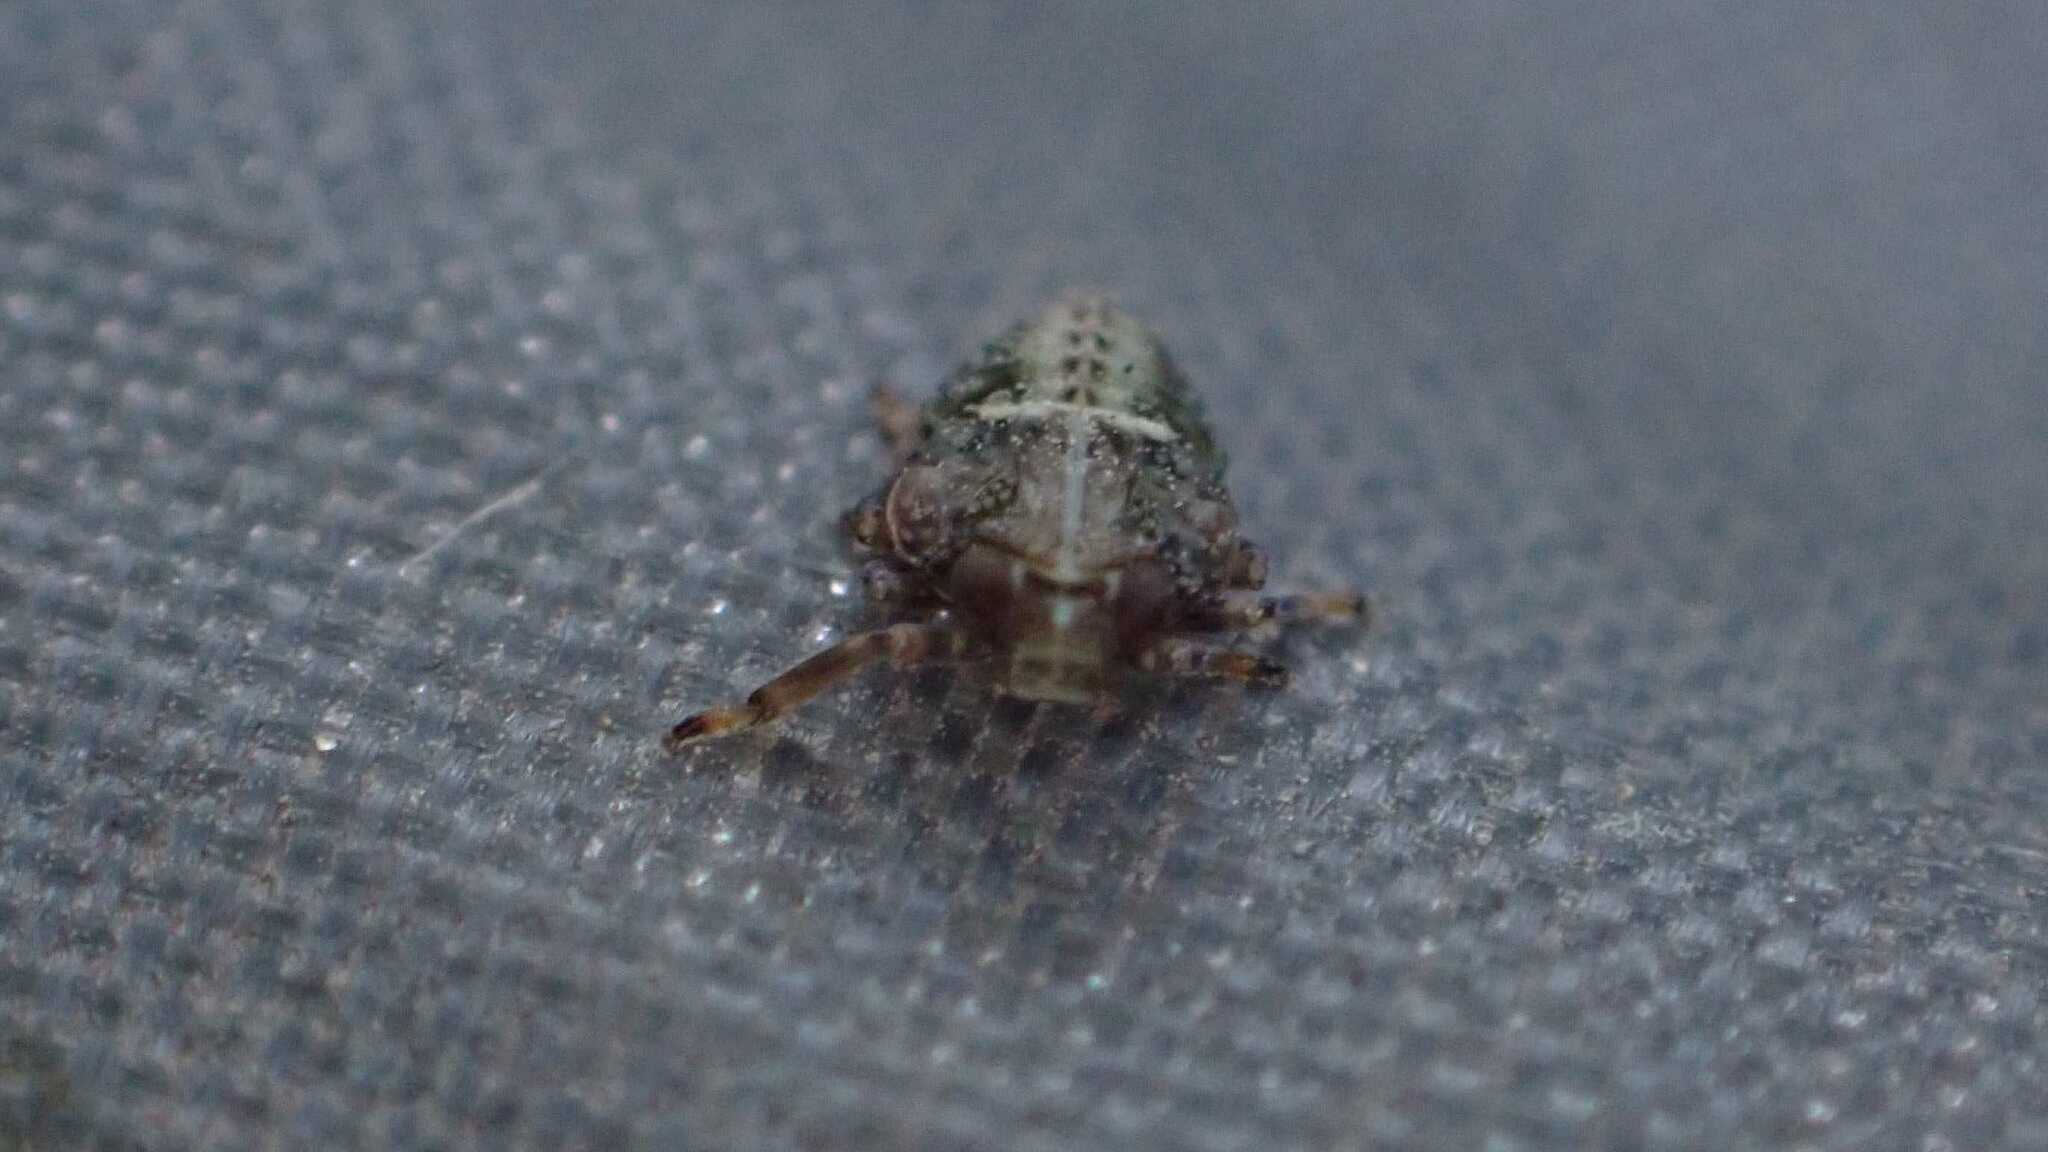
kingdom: Animalia
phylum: Arthropoda
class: Insecta
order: Hemiptera
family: Issidae
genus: Issus
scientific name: Issus coleoptratus
